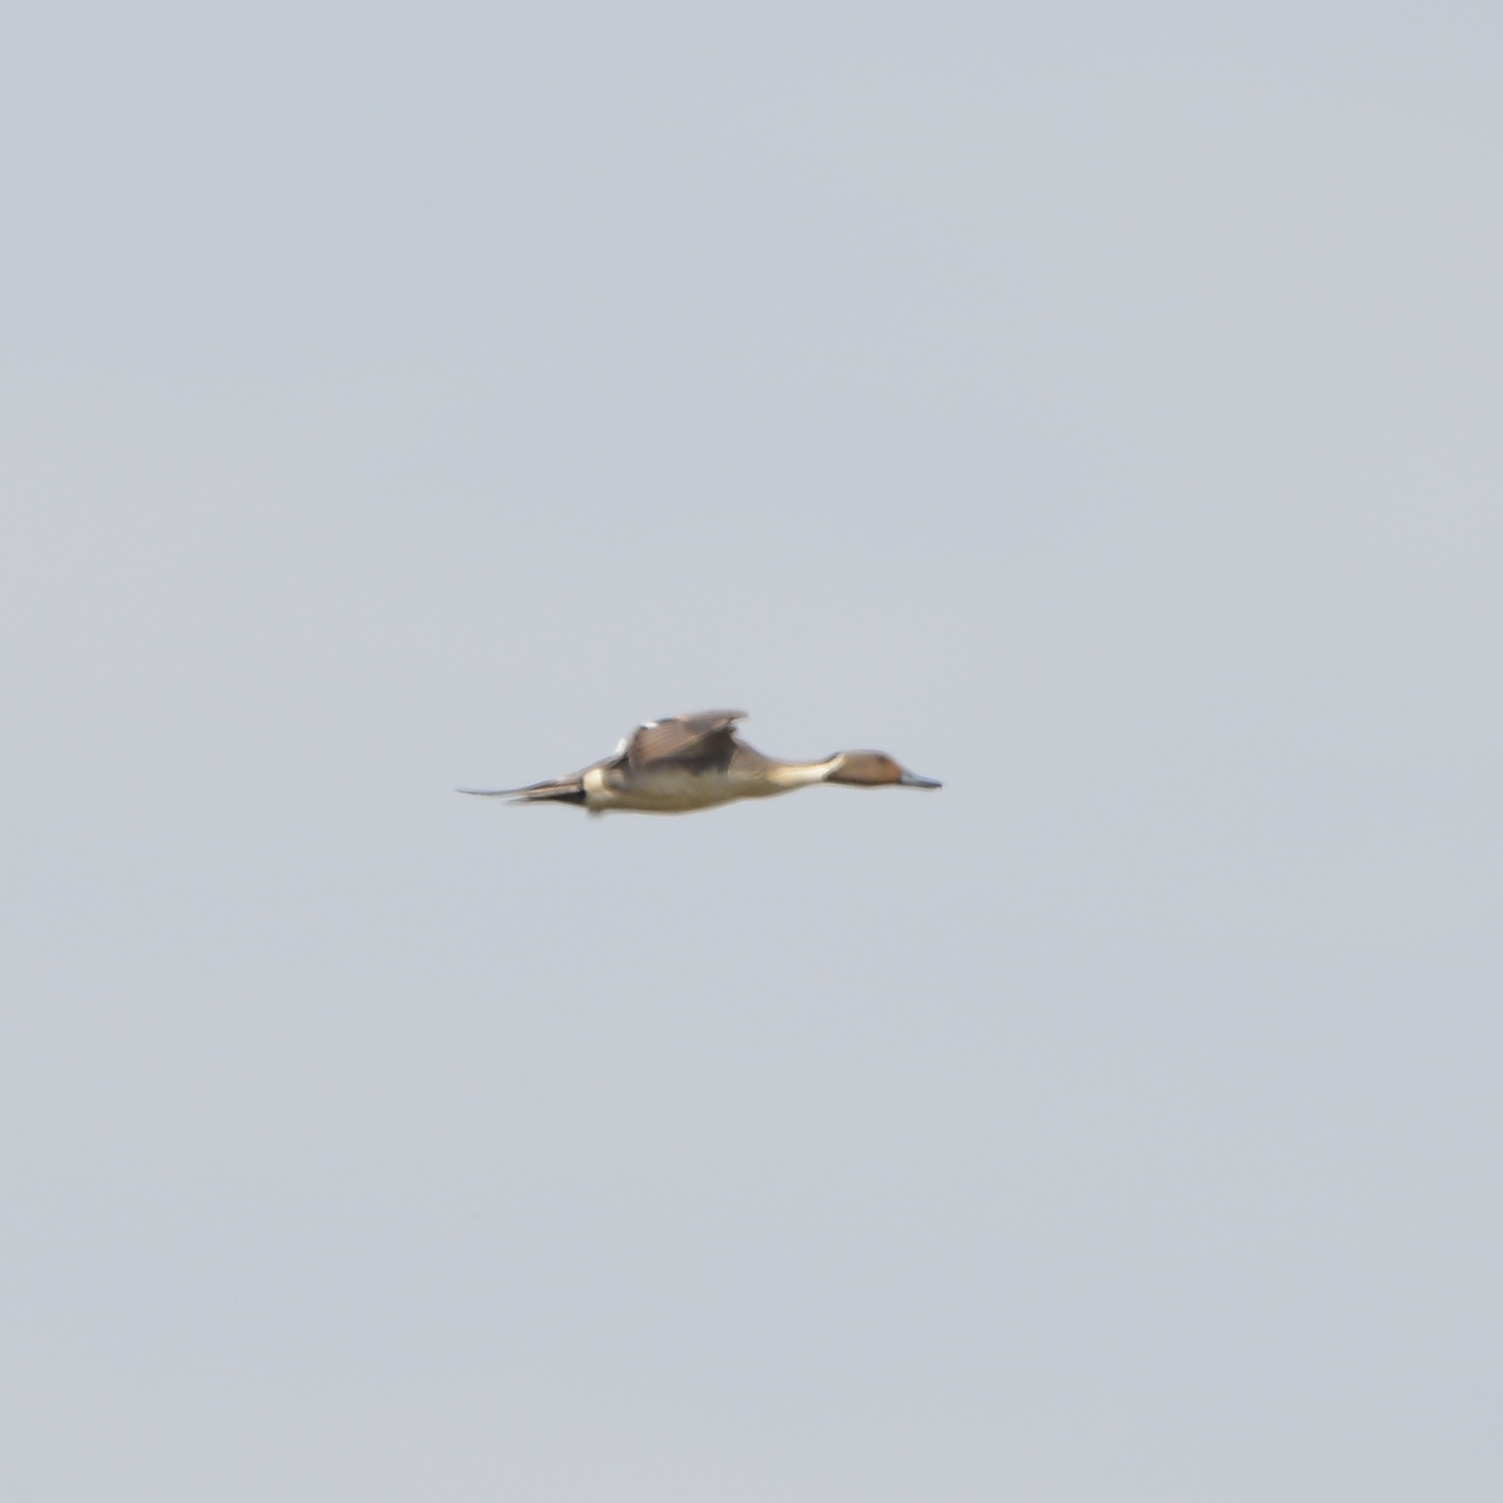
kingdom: Animalia
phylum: Chordata
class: Aves
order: Anseriformes
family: Anatidae
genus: Anas
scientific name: Anas acuta
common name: Northern pintail
